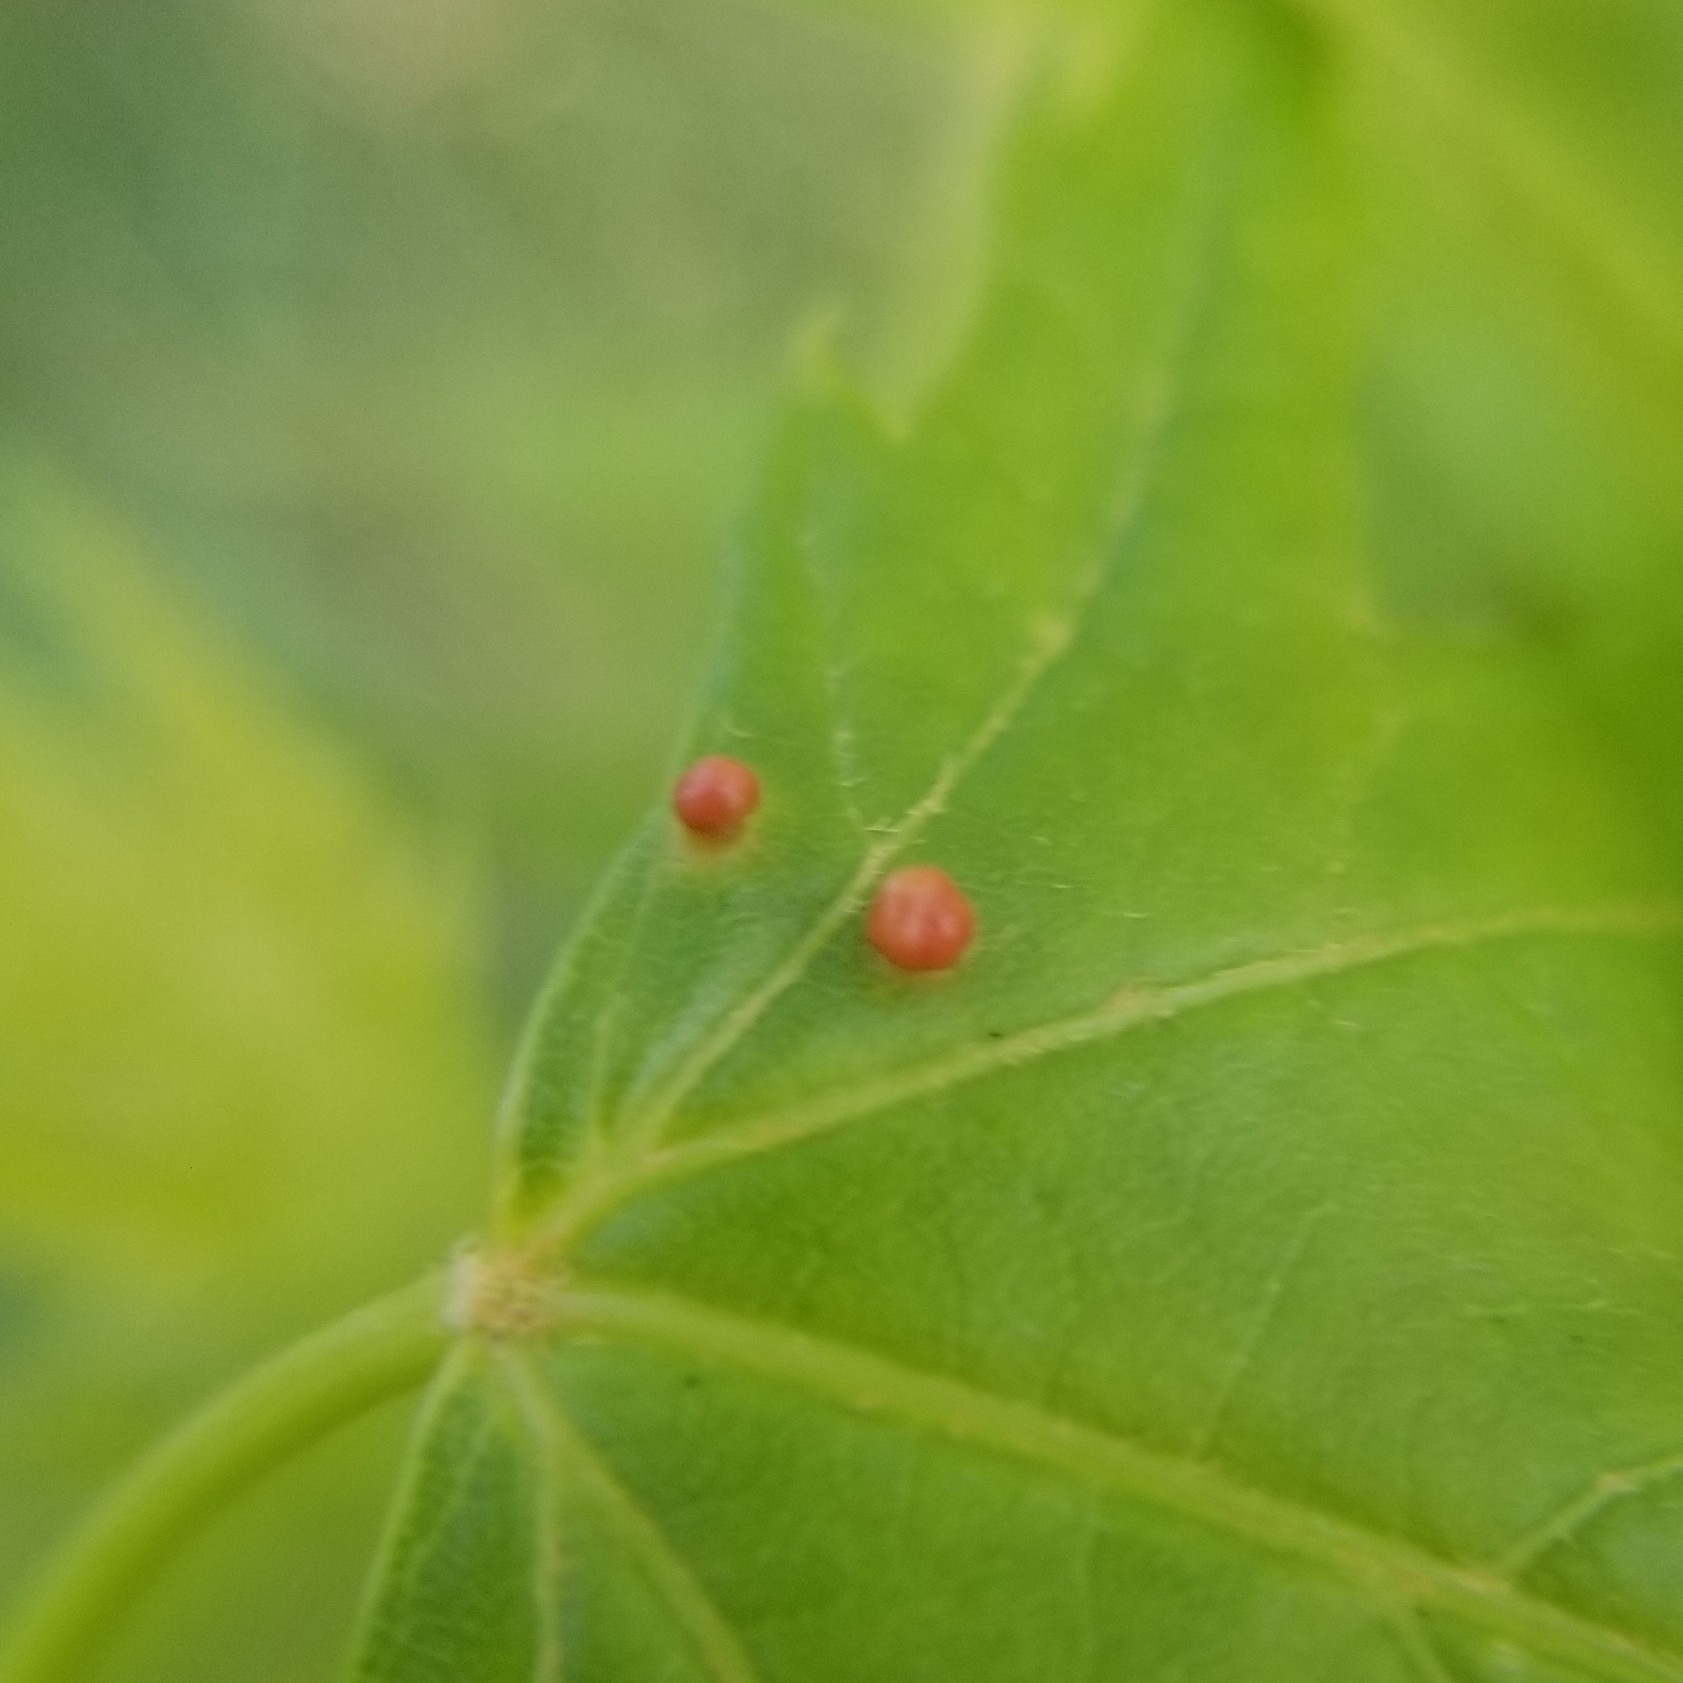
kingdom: Animalia
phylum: Arthropoda
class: Arachnida
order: Trombidiformes
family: Eriophyidae
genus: Vasates
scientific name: Vasates quadripedes
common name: Maple bladder gall mite
